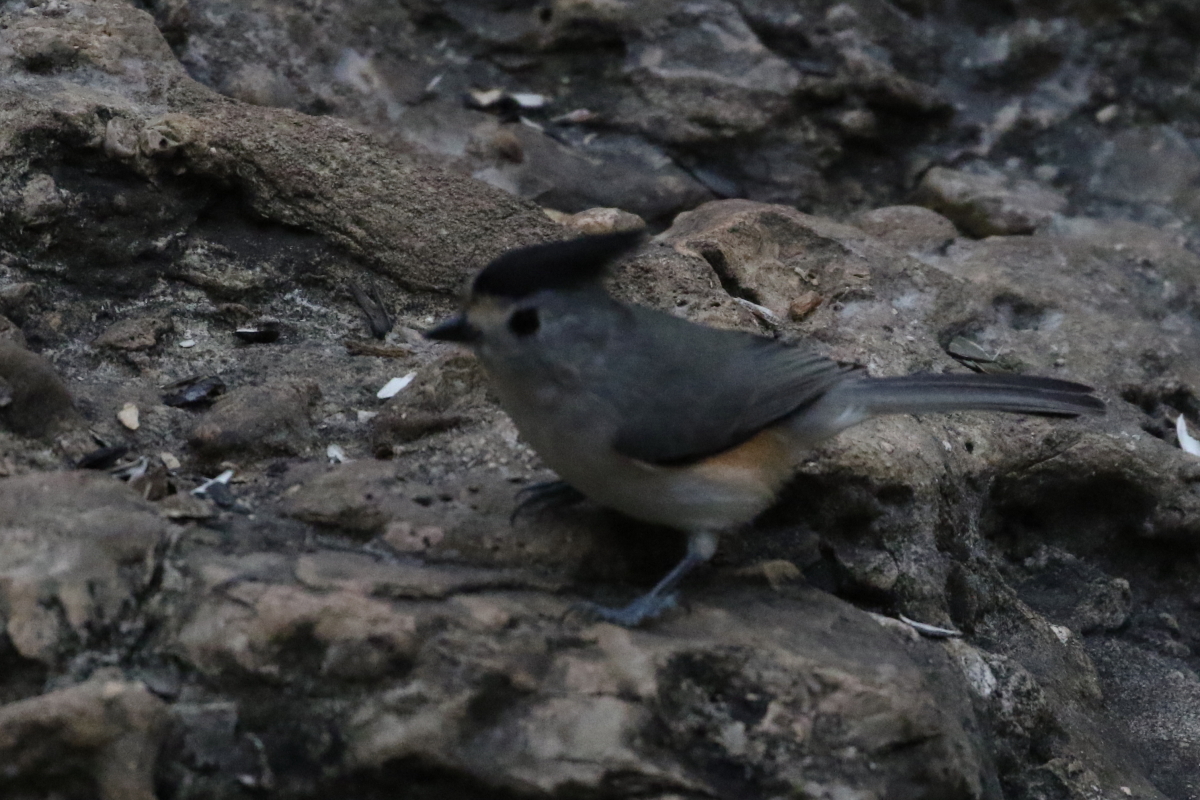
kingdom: Animalia
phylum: Chordata
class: Aves
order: Passeriformes
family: Paridae
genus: Baeolophus
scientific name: Baeolophus atricristatus
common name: Black-crested titmouse
